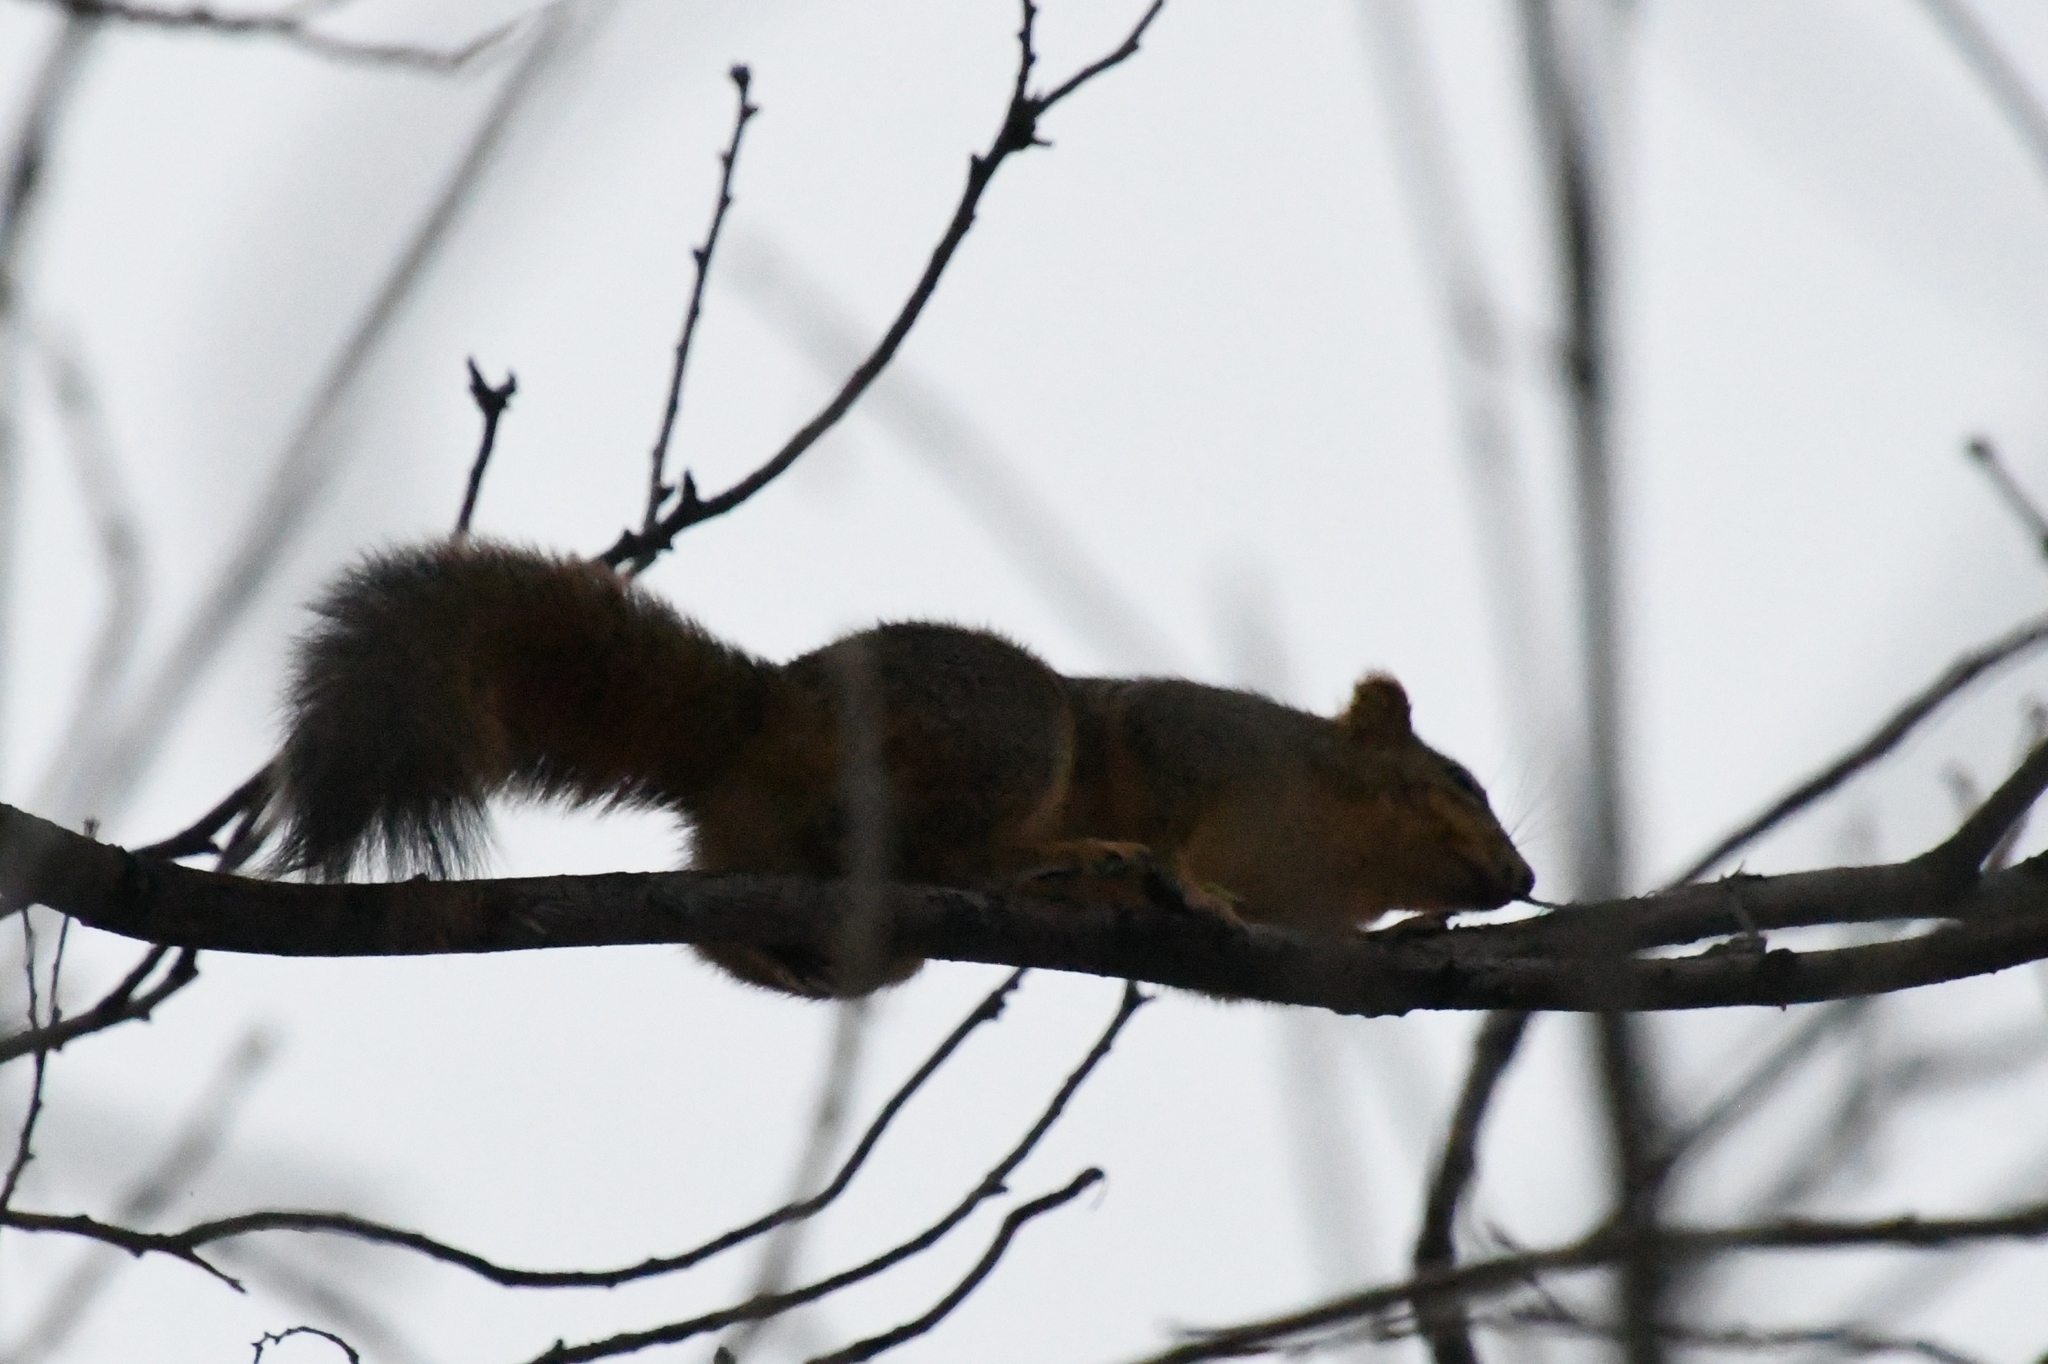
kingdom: Animalia
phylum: Chordata
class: Mammalia
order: Rodentia
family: Sciuridae
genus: Sciurus
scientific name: Sciurus niger
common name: Fox squirrel
